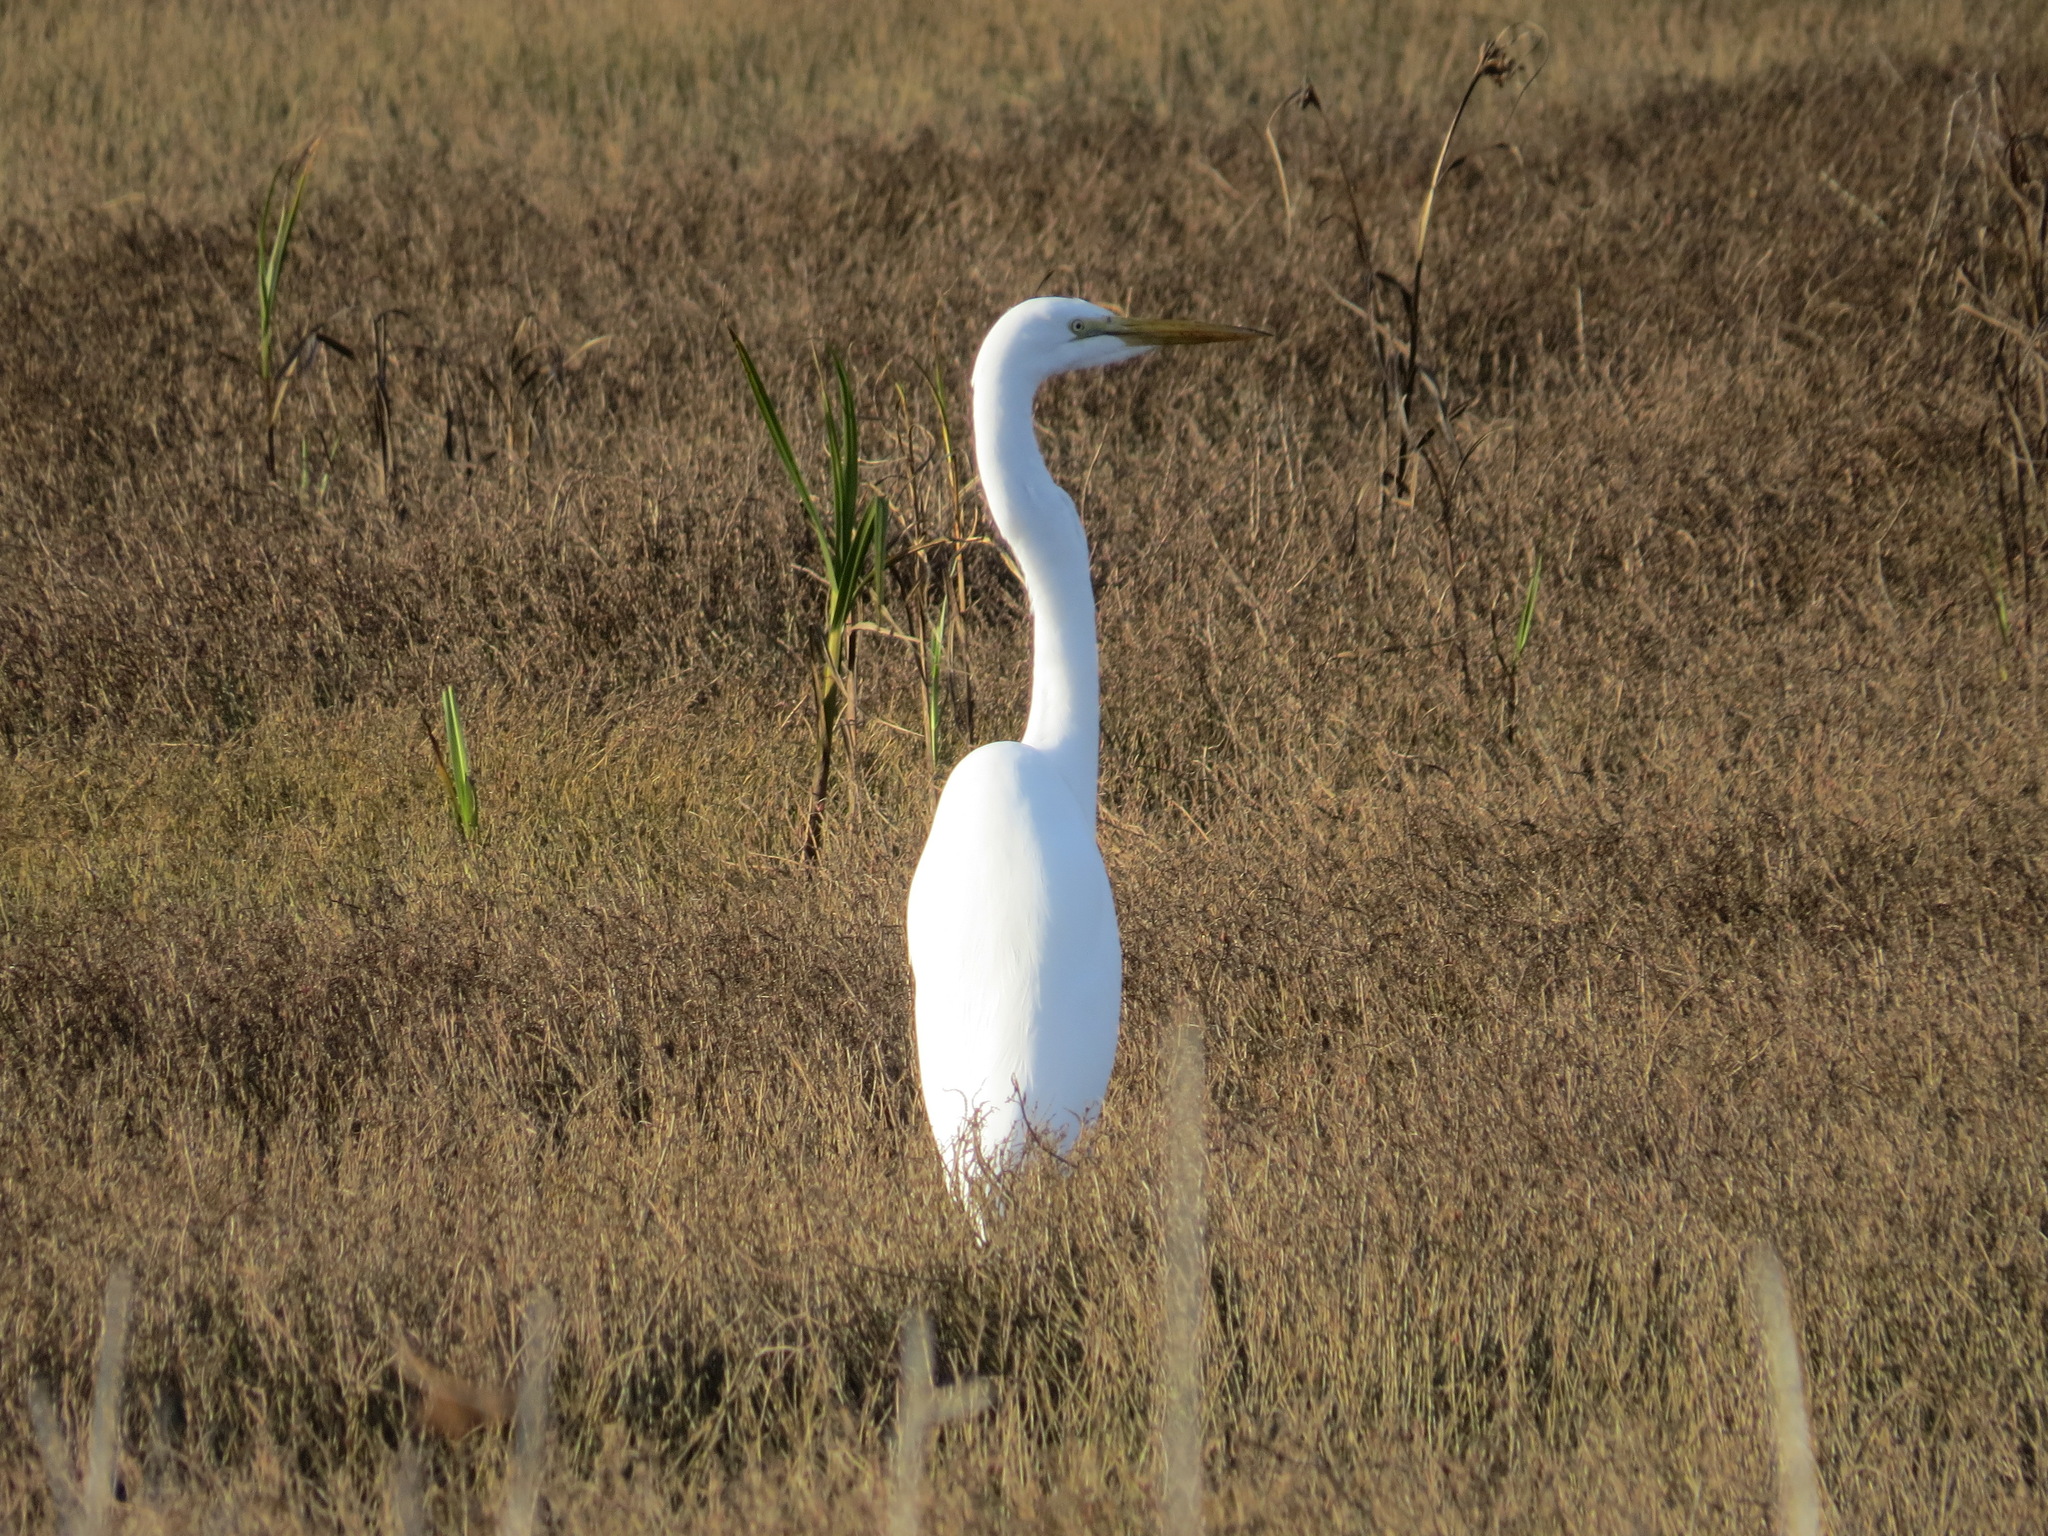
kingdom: Animalia
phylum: Chordata
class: Aves
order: Pelecaniformes
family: Ardeidae
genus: Ardea
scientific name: Ardea alba
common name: Great egret
